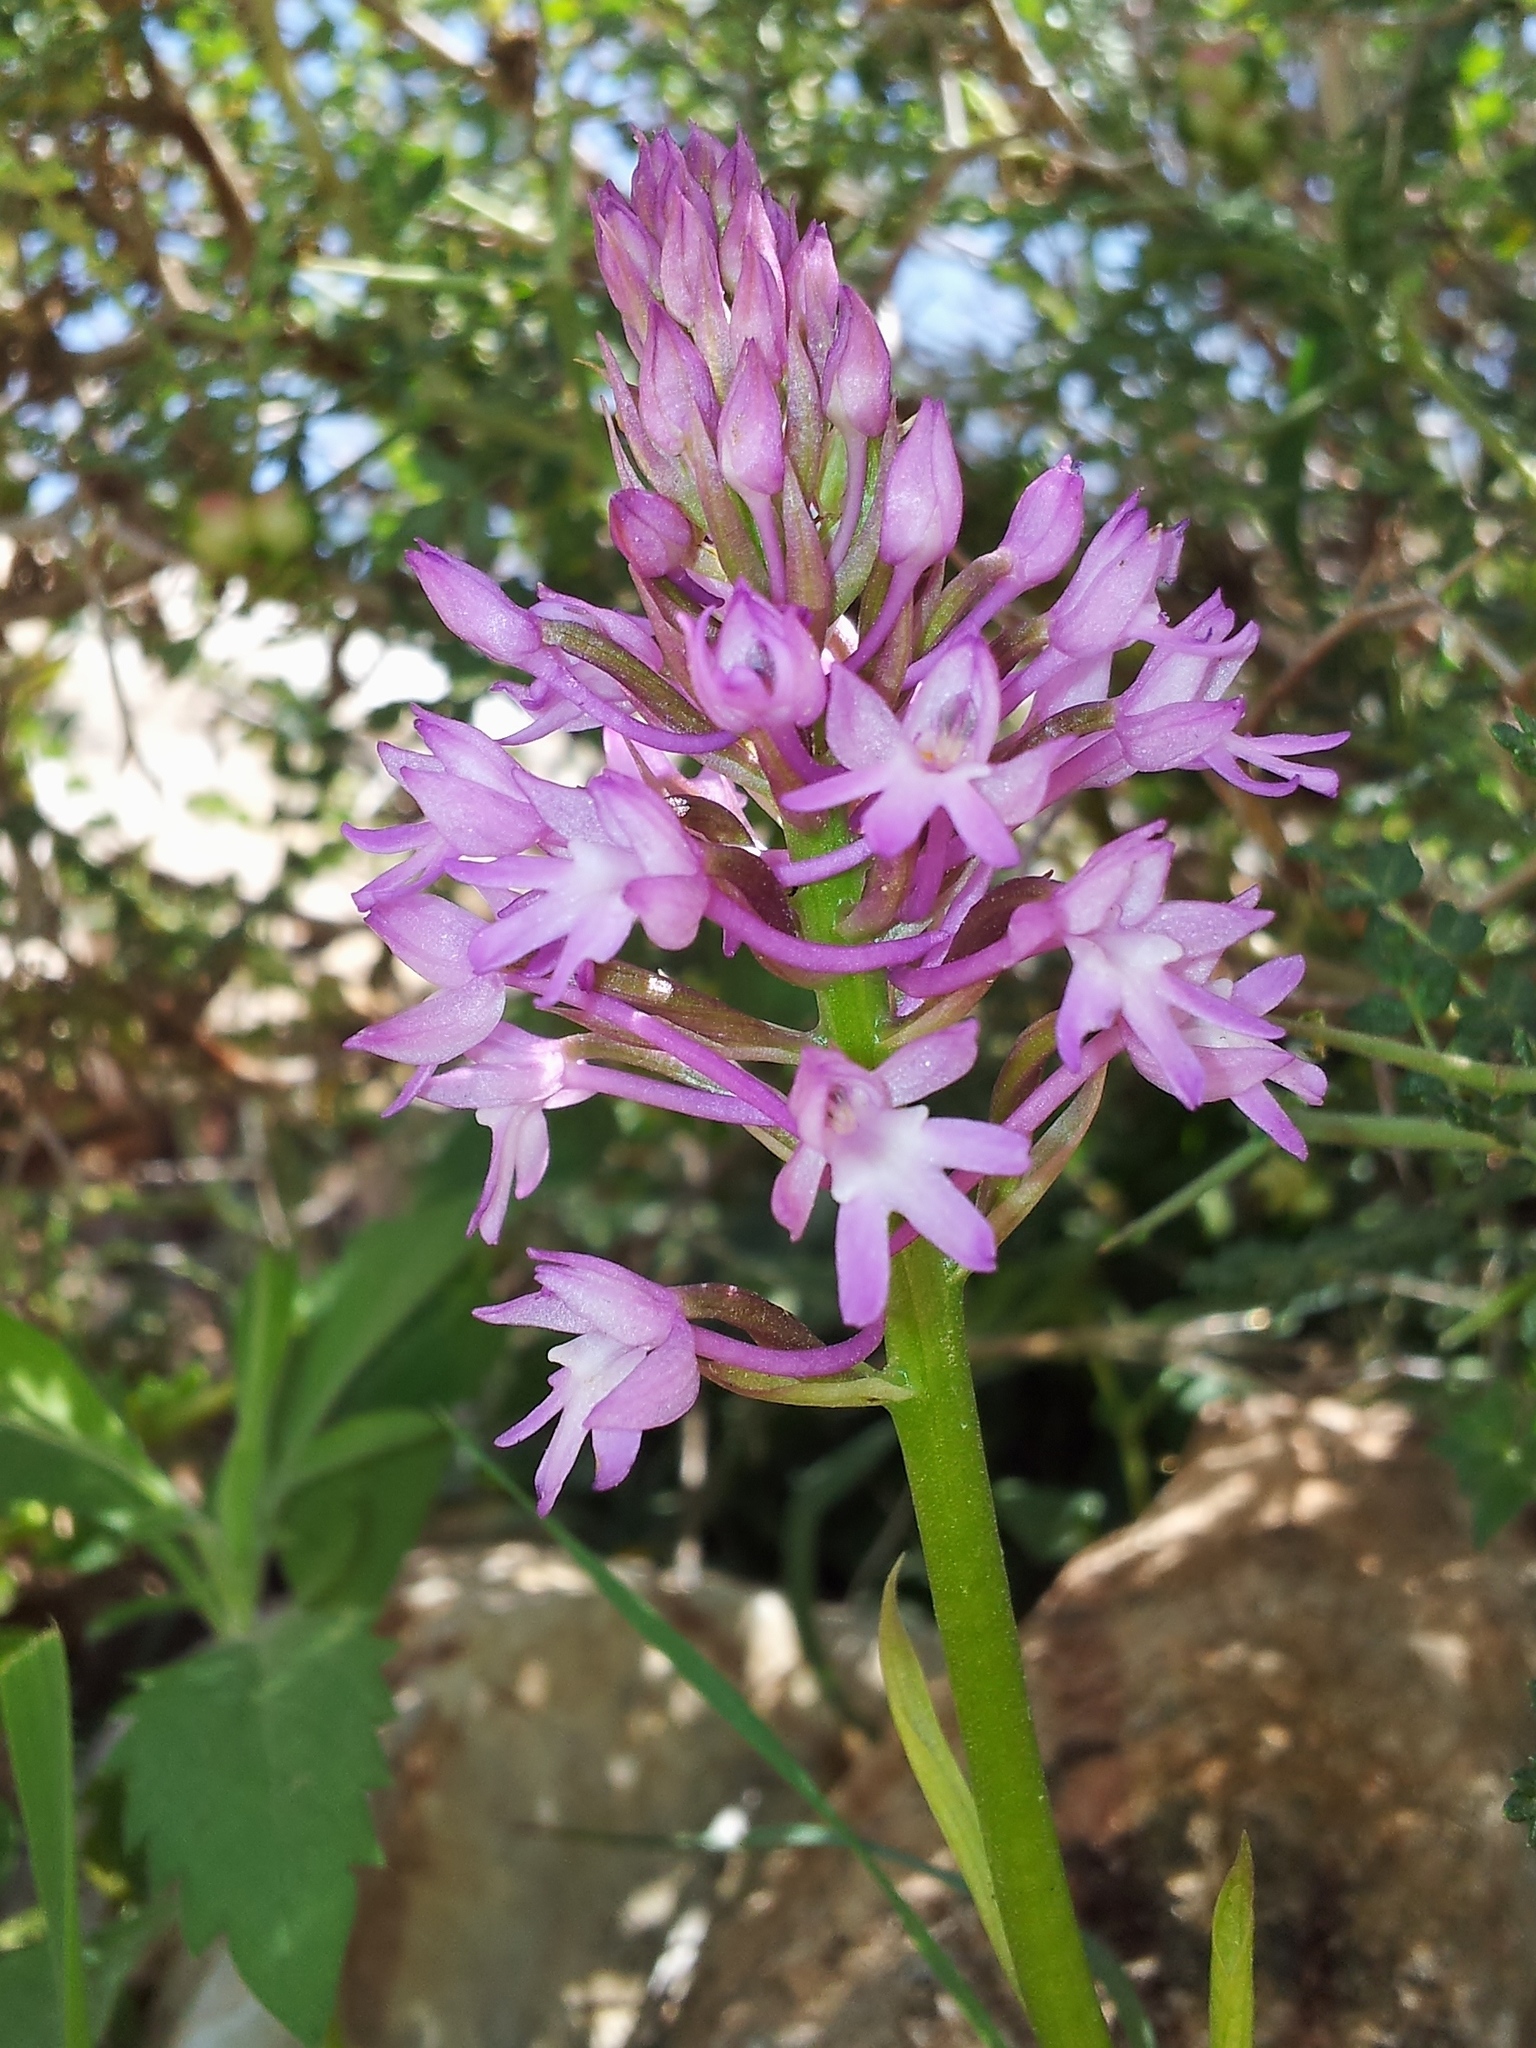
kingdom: Plantae
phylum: Tracheophyta
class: Liliopsida
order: Asparagales
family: Orchidaceae
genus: Anacamptis
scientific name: Anacamptis pyramidalis
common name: Pyramidal orchid
